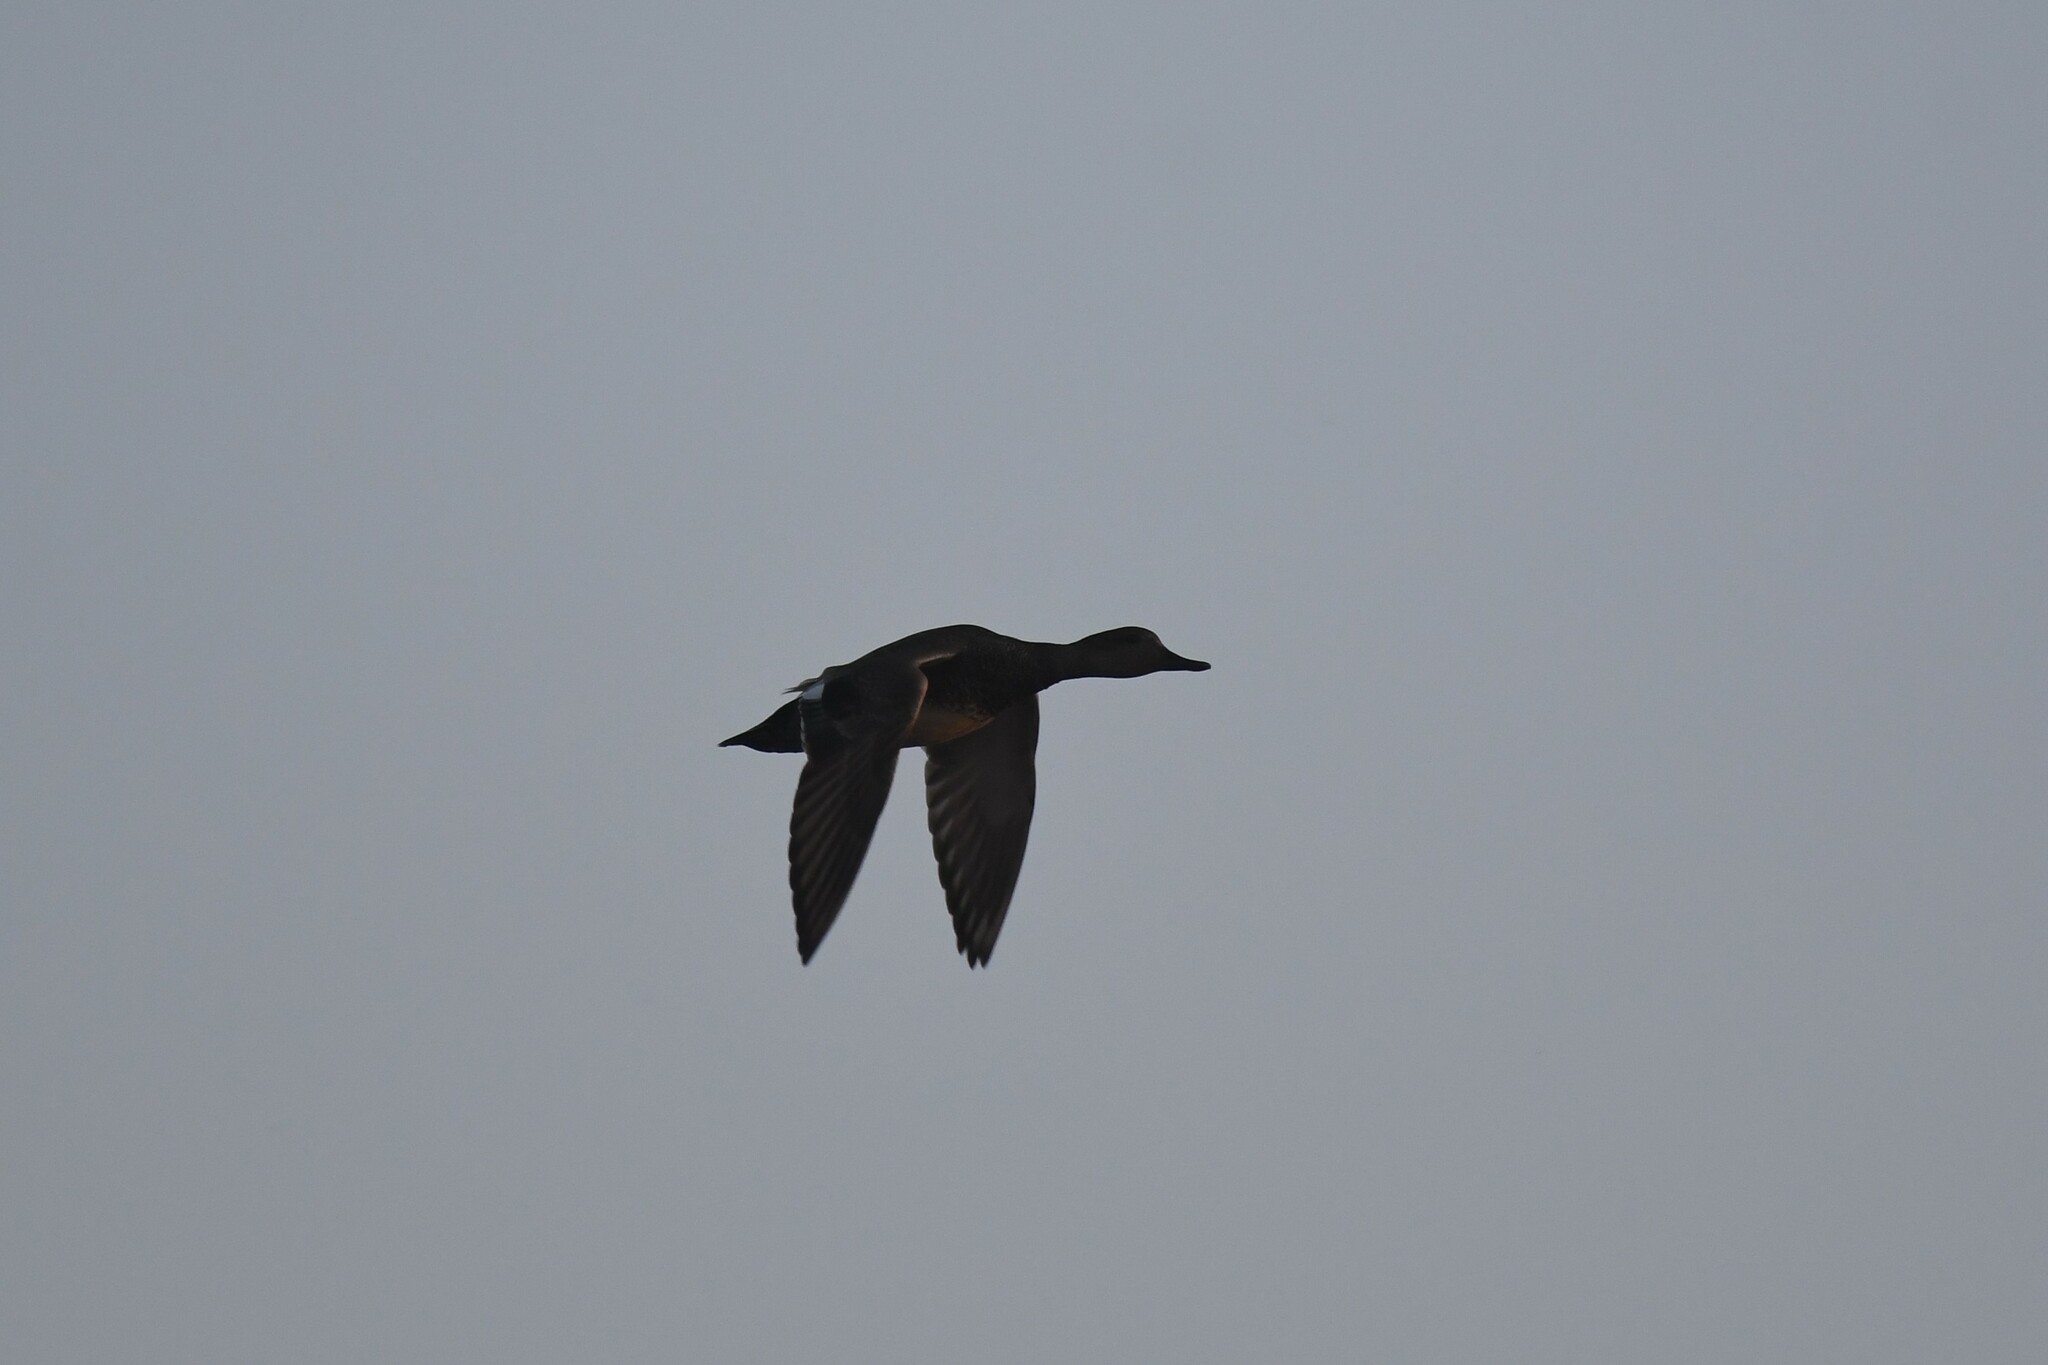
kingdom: Animalia
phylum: Chordata
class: Aves
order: Anseriformes
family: Anatidae
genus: Mareca
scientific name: Mareca strepera
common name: Gadwall
